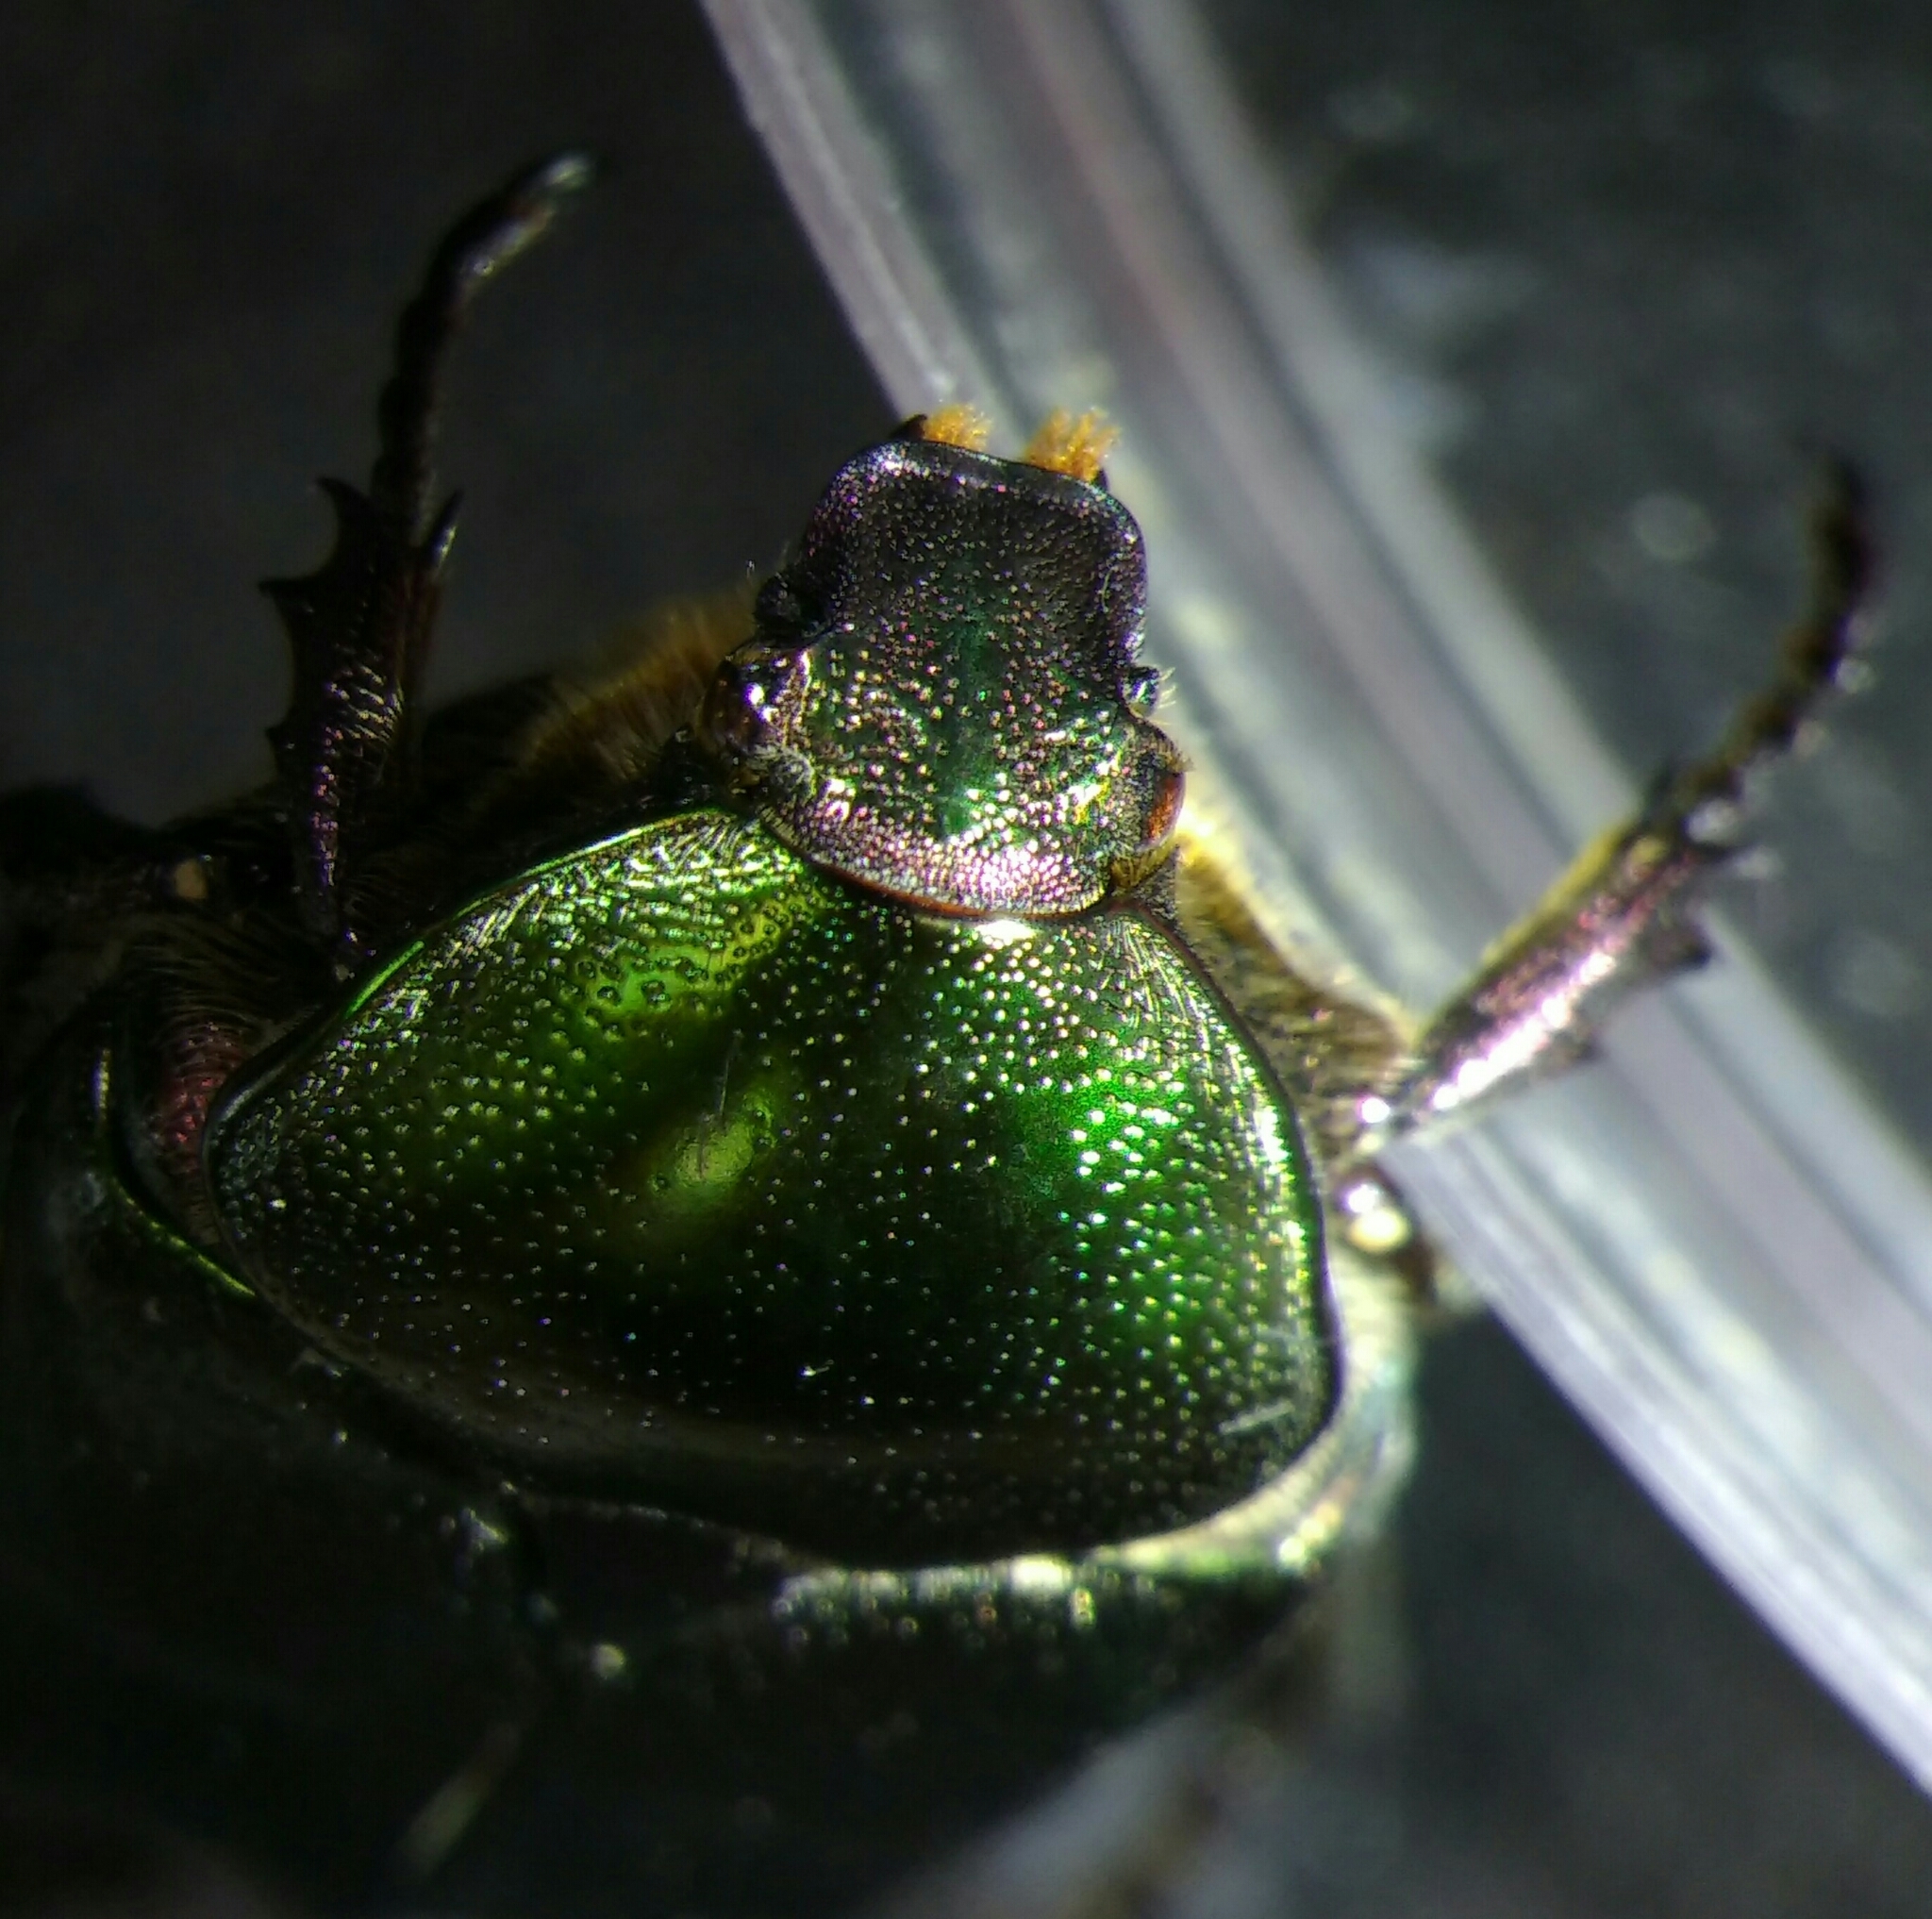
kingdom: Animalia
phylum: Arthropoda
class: Insecta
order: Coleoptera
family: Scarabaeidae
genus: Protaetia
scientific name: Protaetia cuprea
